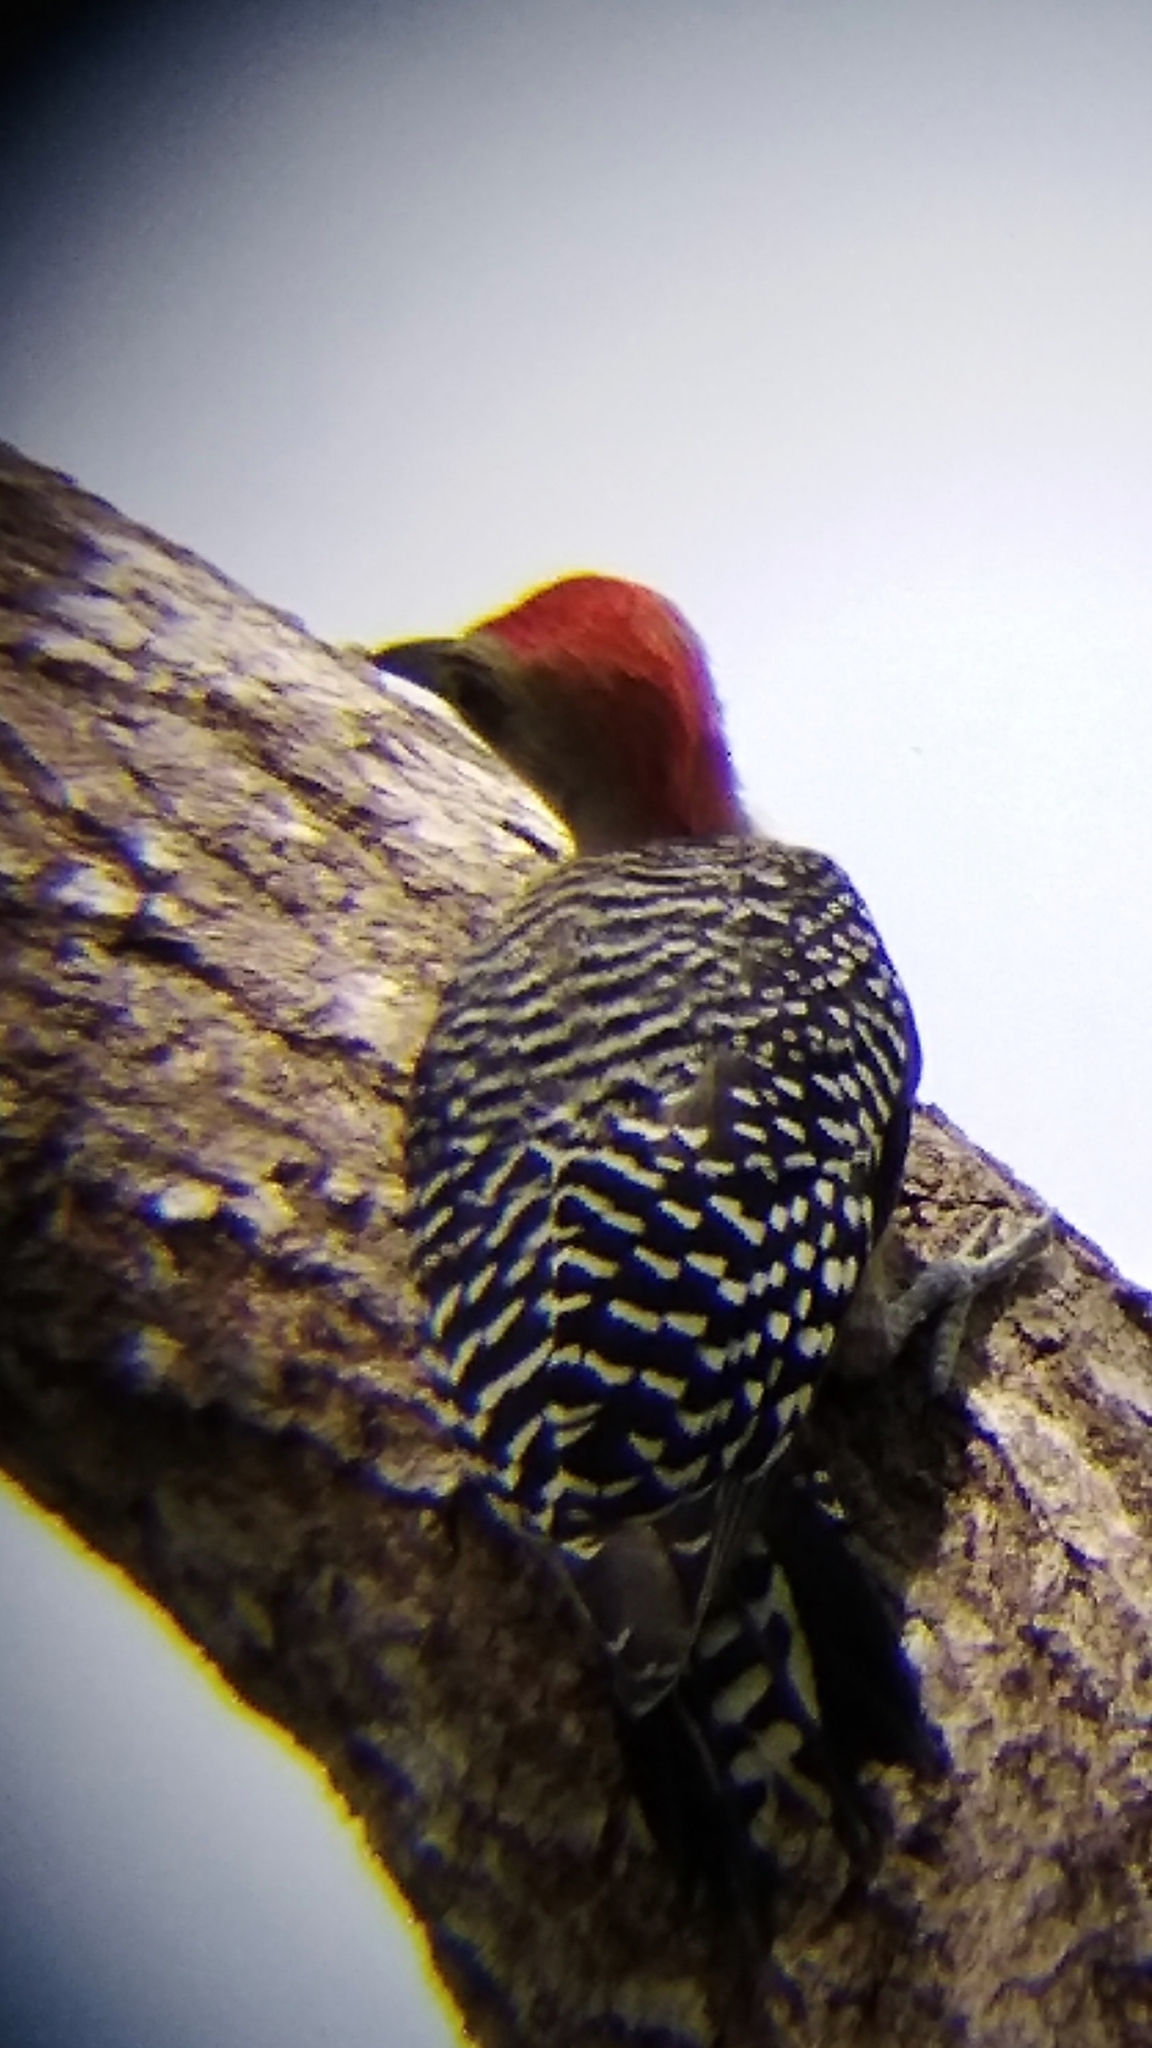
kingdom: Animalia
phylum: Chordata
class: Aves
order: Piciformes
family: Picidae
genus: Melanerpes
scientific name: Melanerpes rubricapillus
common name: Red-crowned woodpecker
